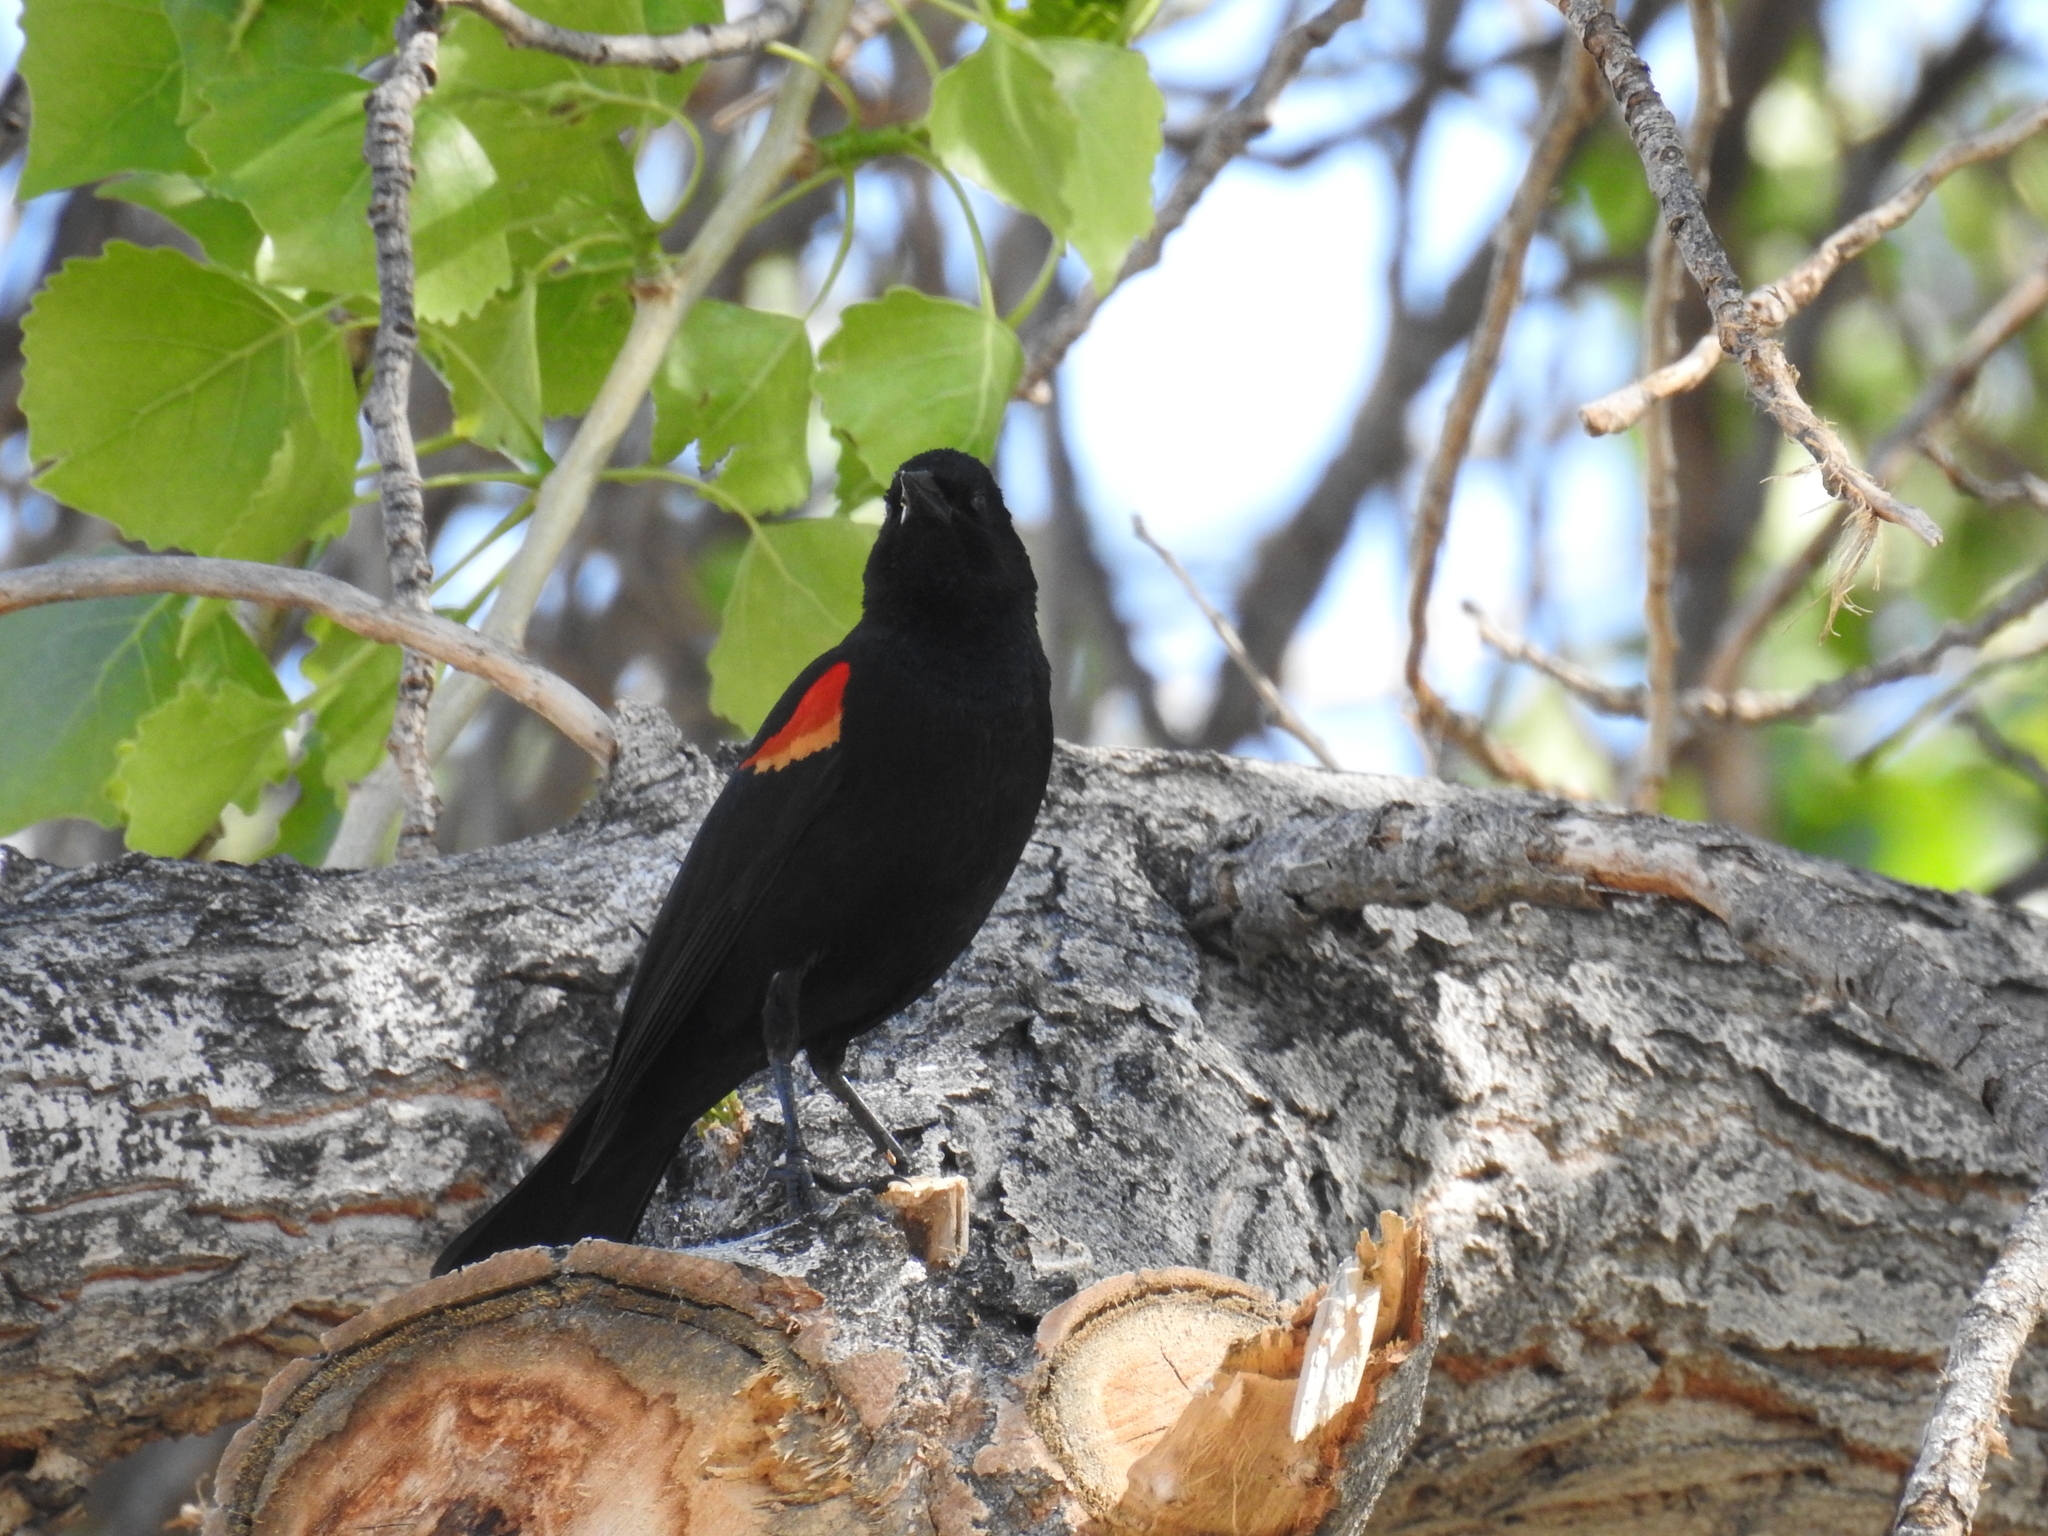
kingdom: Animalia
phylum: Chordata
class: Aves
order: Passeriformes
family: Icteridae
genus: Agelaius
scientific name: Agelaius phoeniceus
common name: Red-winged blackbird
